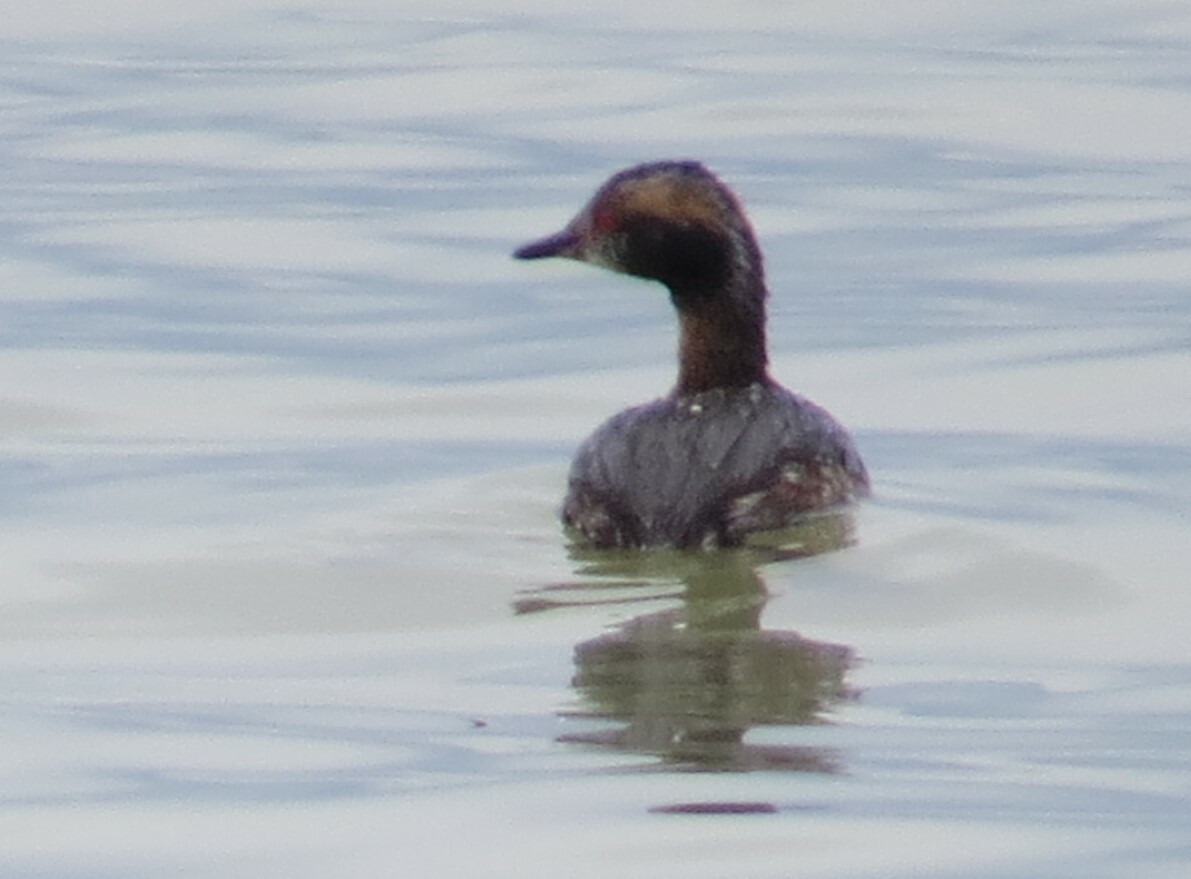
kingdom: Animalia
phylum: Chordata
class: Aves
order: Podicipediformes
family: Podicipedidae
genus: Podiceps
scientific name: Podiceps auritus
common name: Horned grebe
